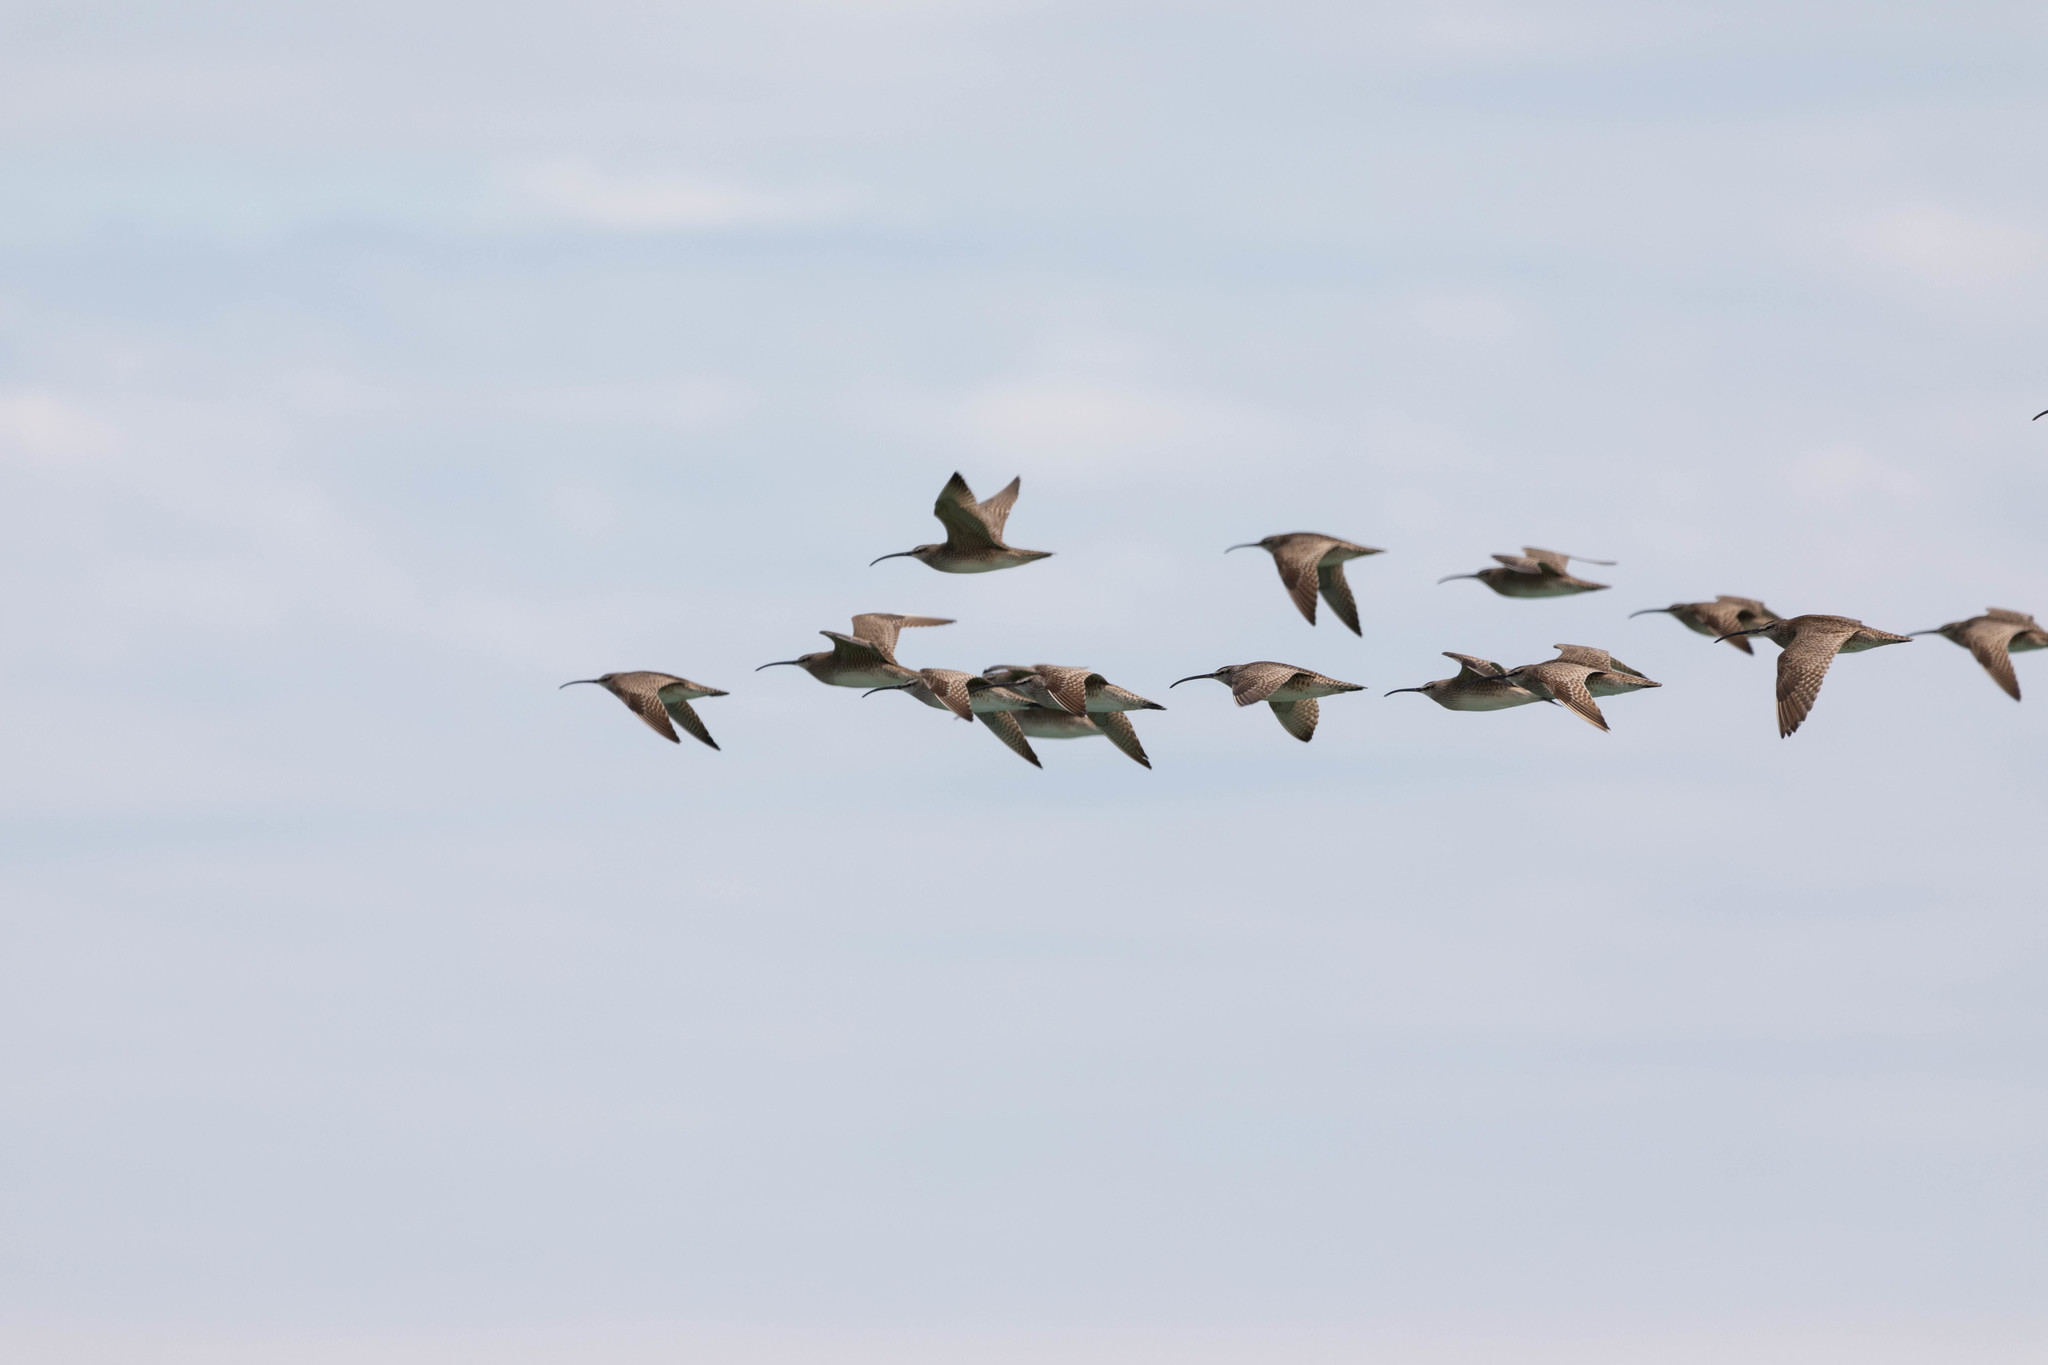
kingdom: Animalia
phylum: Chordata
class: Aves
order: Charadriiformes
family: Scolopacidae
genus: Numenius
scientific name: Numenius phaeopus
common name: Whimbrel
